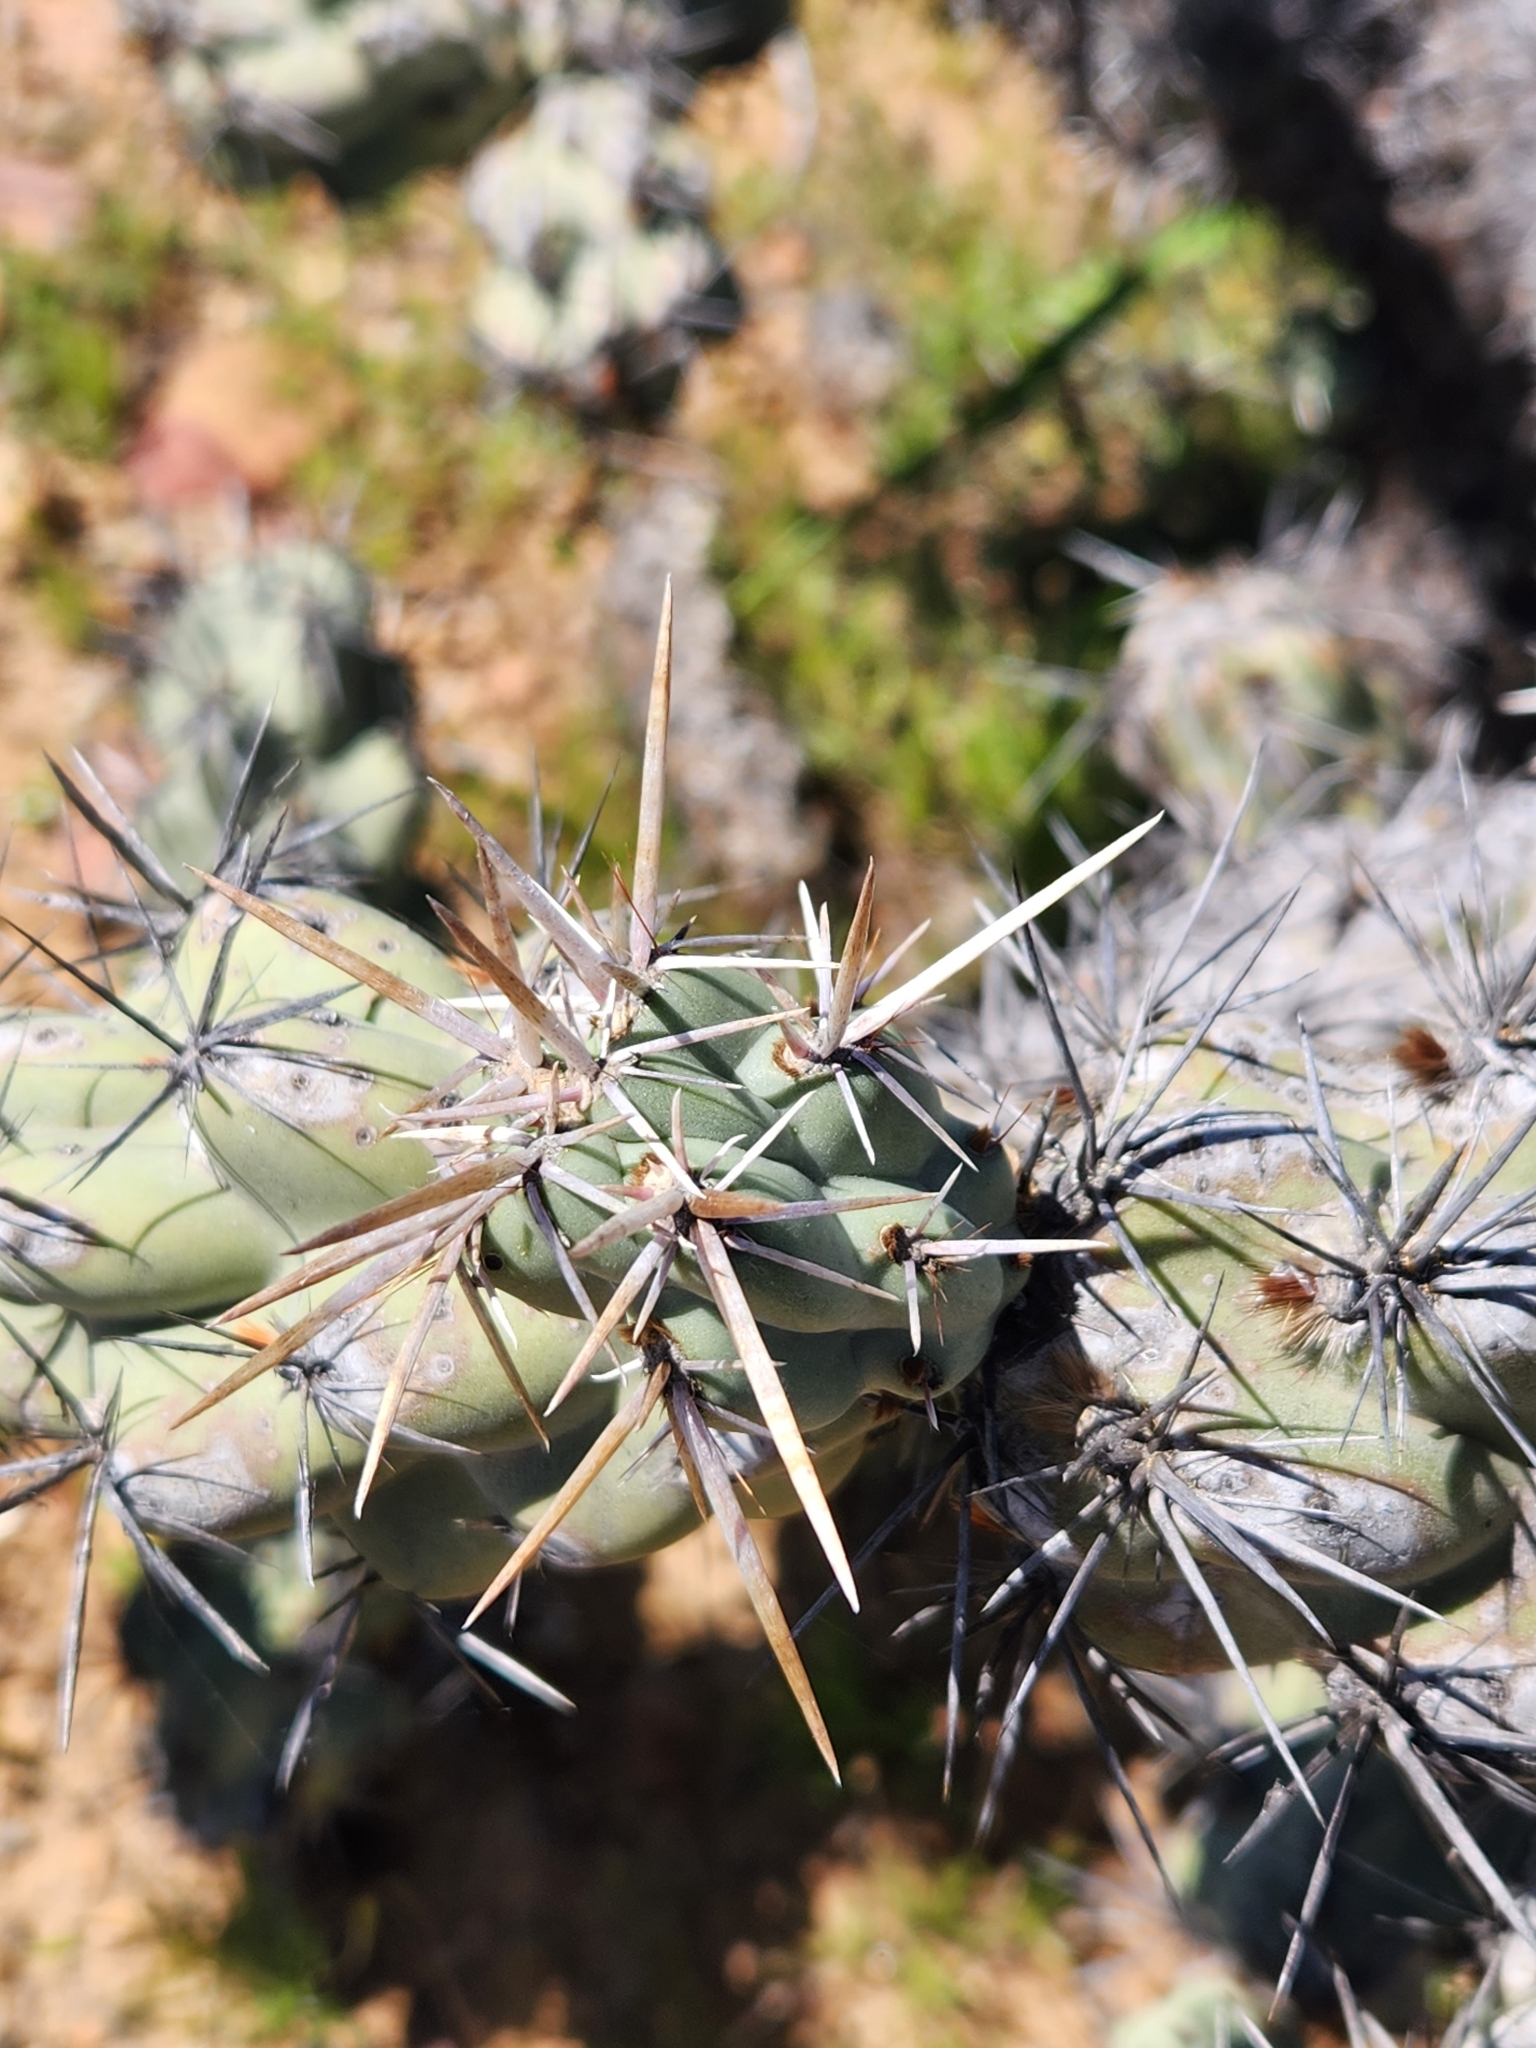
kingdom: Plantae
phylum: Tracheophyta
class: Magnoliopsida
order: Caryophyllales
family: Cactaceae
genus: Cylindropuntia
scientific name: Cylindropuntia cholla
